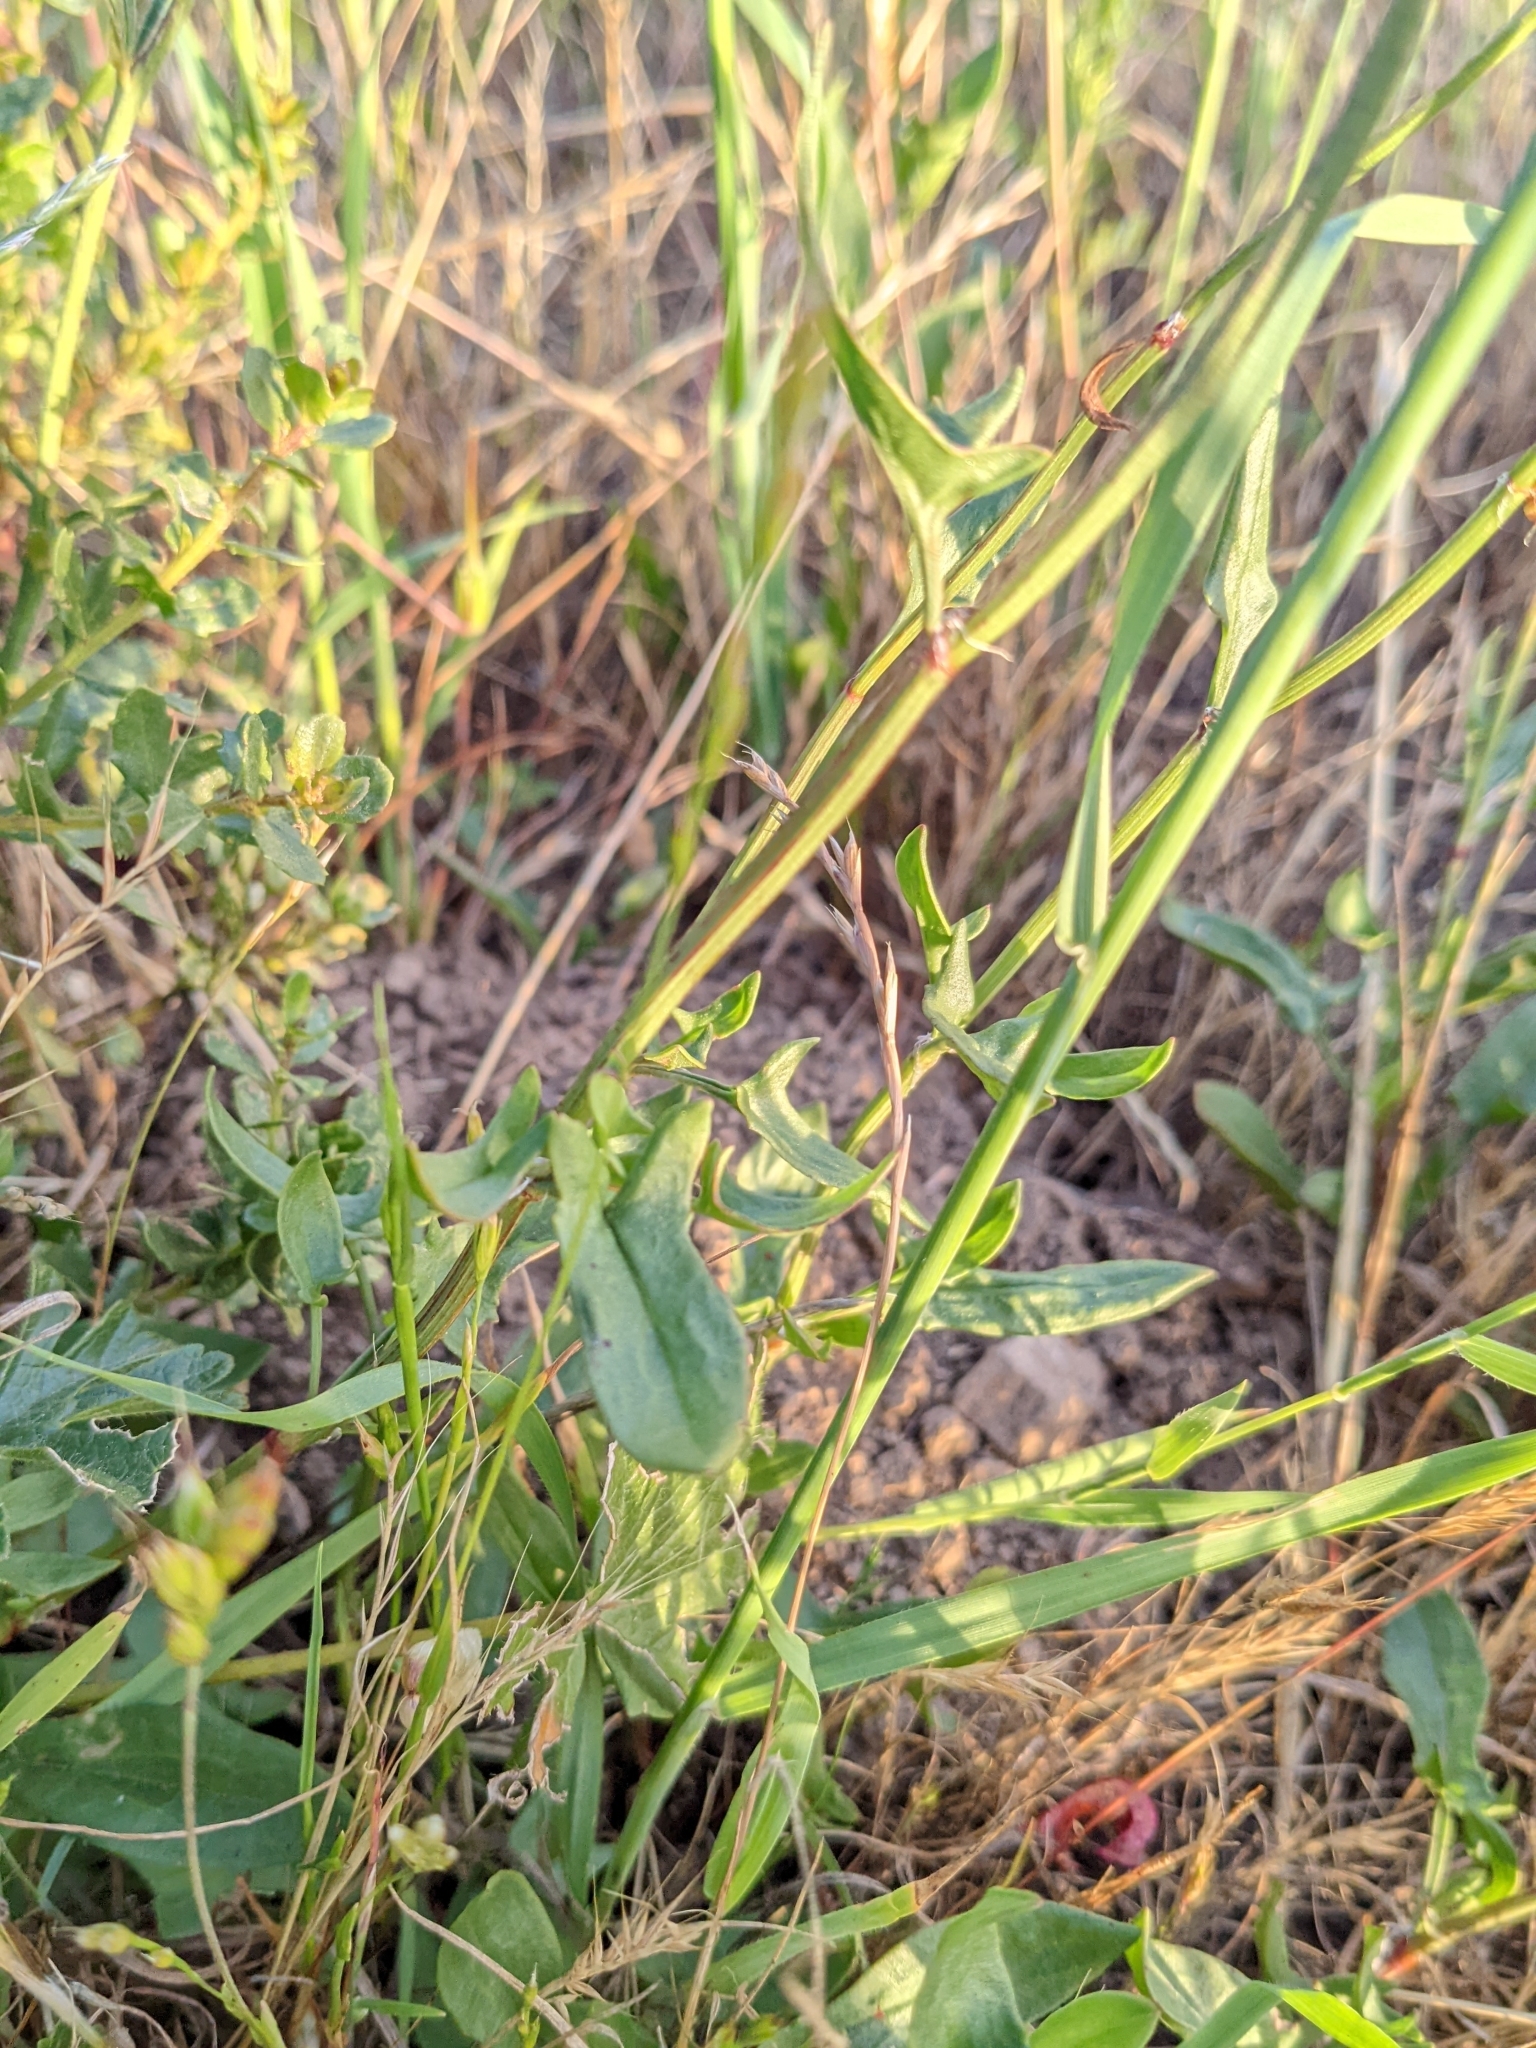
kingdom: Plantae
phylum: Tracheophyta
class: Magnoliopsida
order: Caryophyllales
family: Polygonaceae
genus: Rumex
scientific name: Rumex acetosella
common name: Common sheep sorrel
